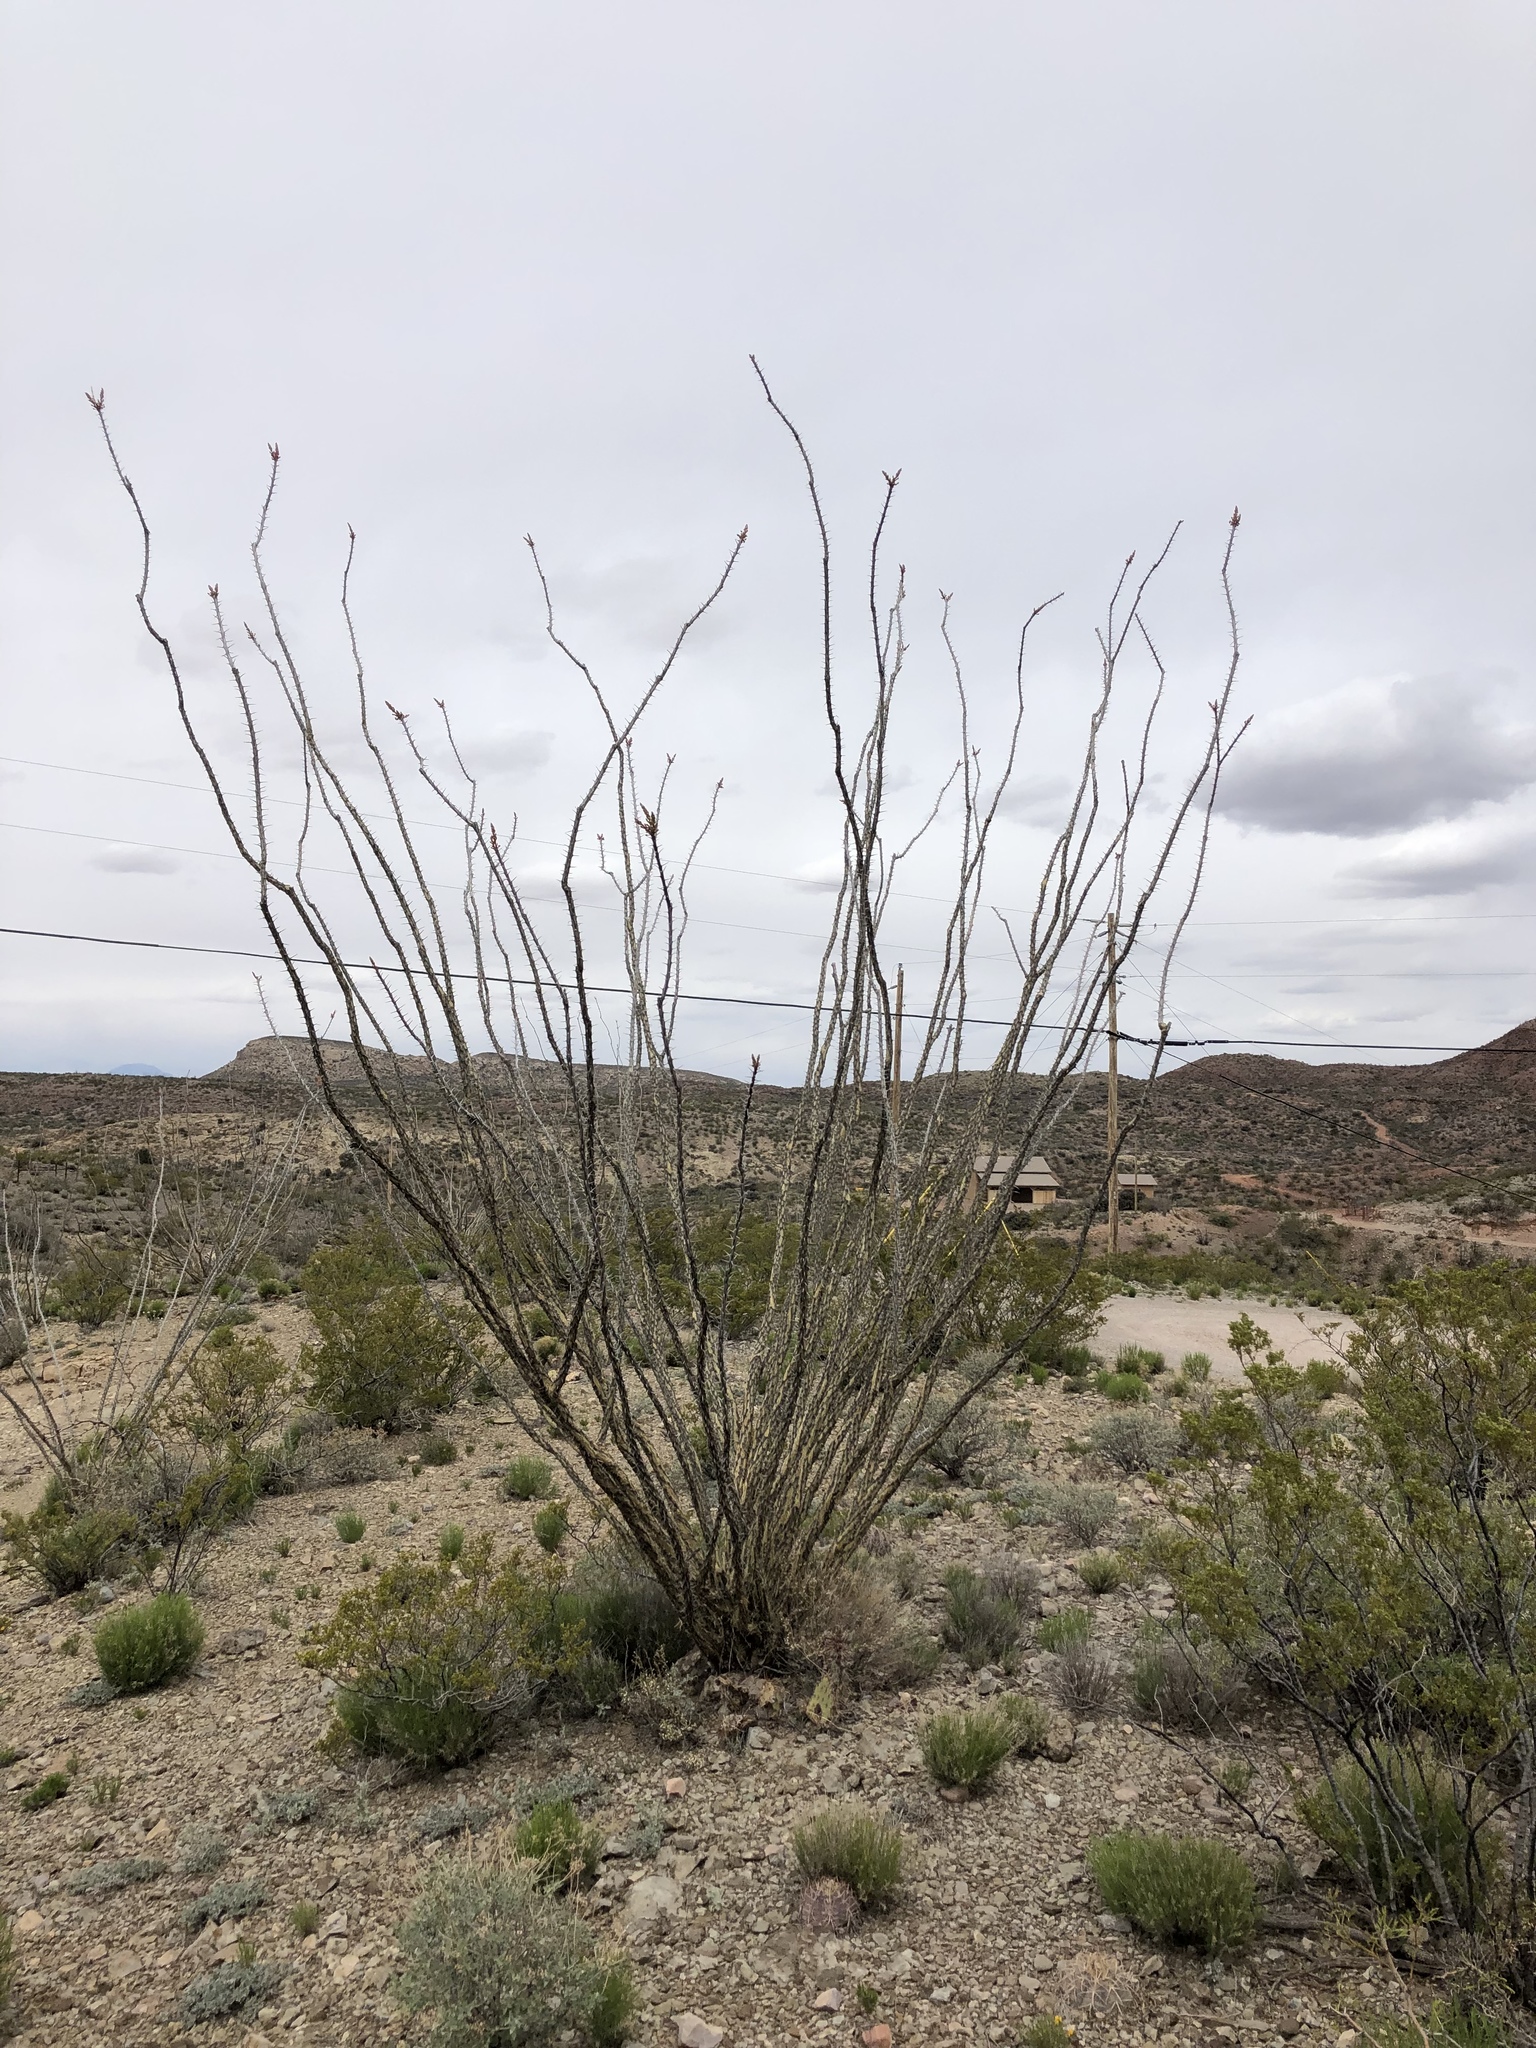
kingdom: Plantae
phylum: Tracheophyta
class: Magnoliopsida
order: Ericales
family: Fouquieriaceae
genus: Fouquieria
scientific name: Fouquieria splendens
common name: Vine-cactus
